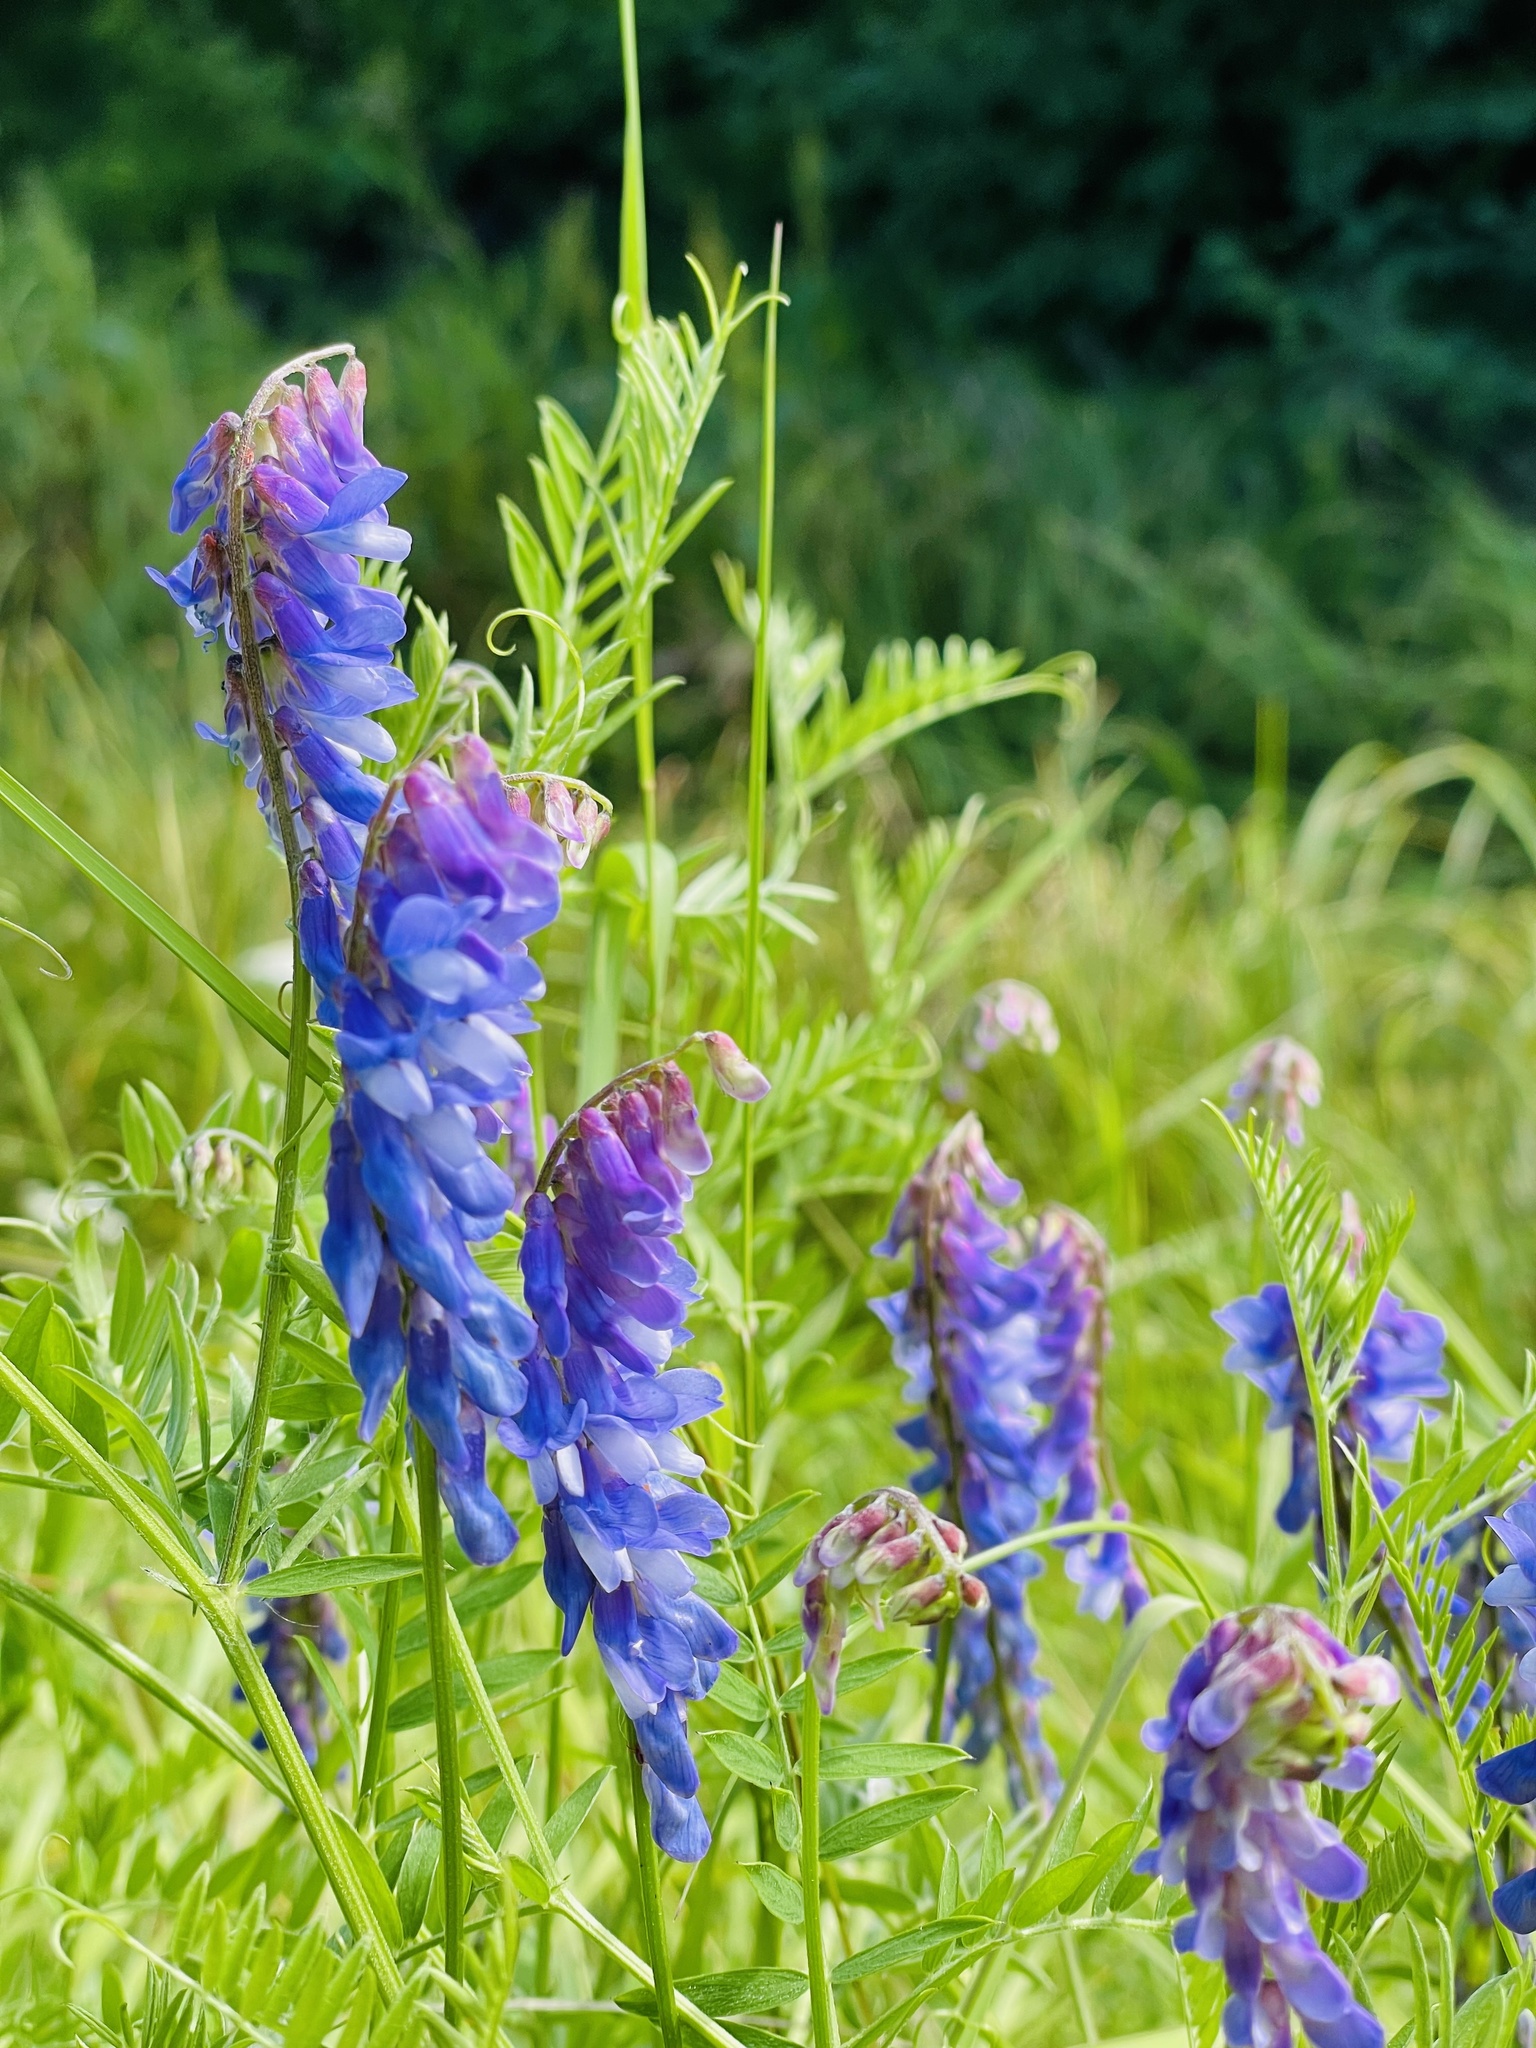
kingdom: Plantae
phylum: Tracheophyta
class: Magnoliopsida
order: Fabales
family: Fabaceae
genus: Vicia
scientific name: Vicia cracca
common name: Bird vetch
